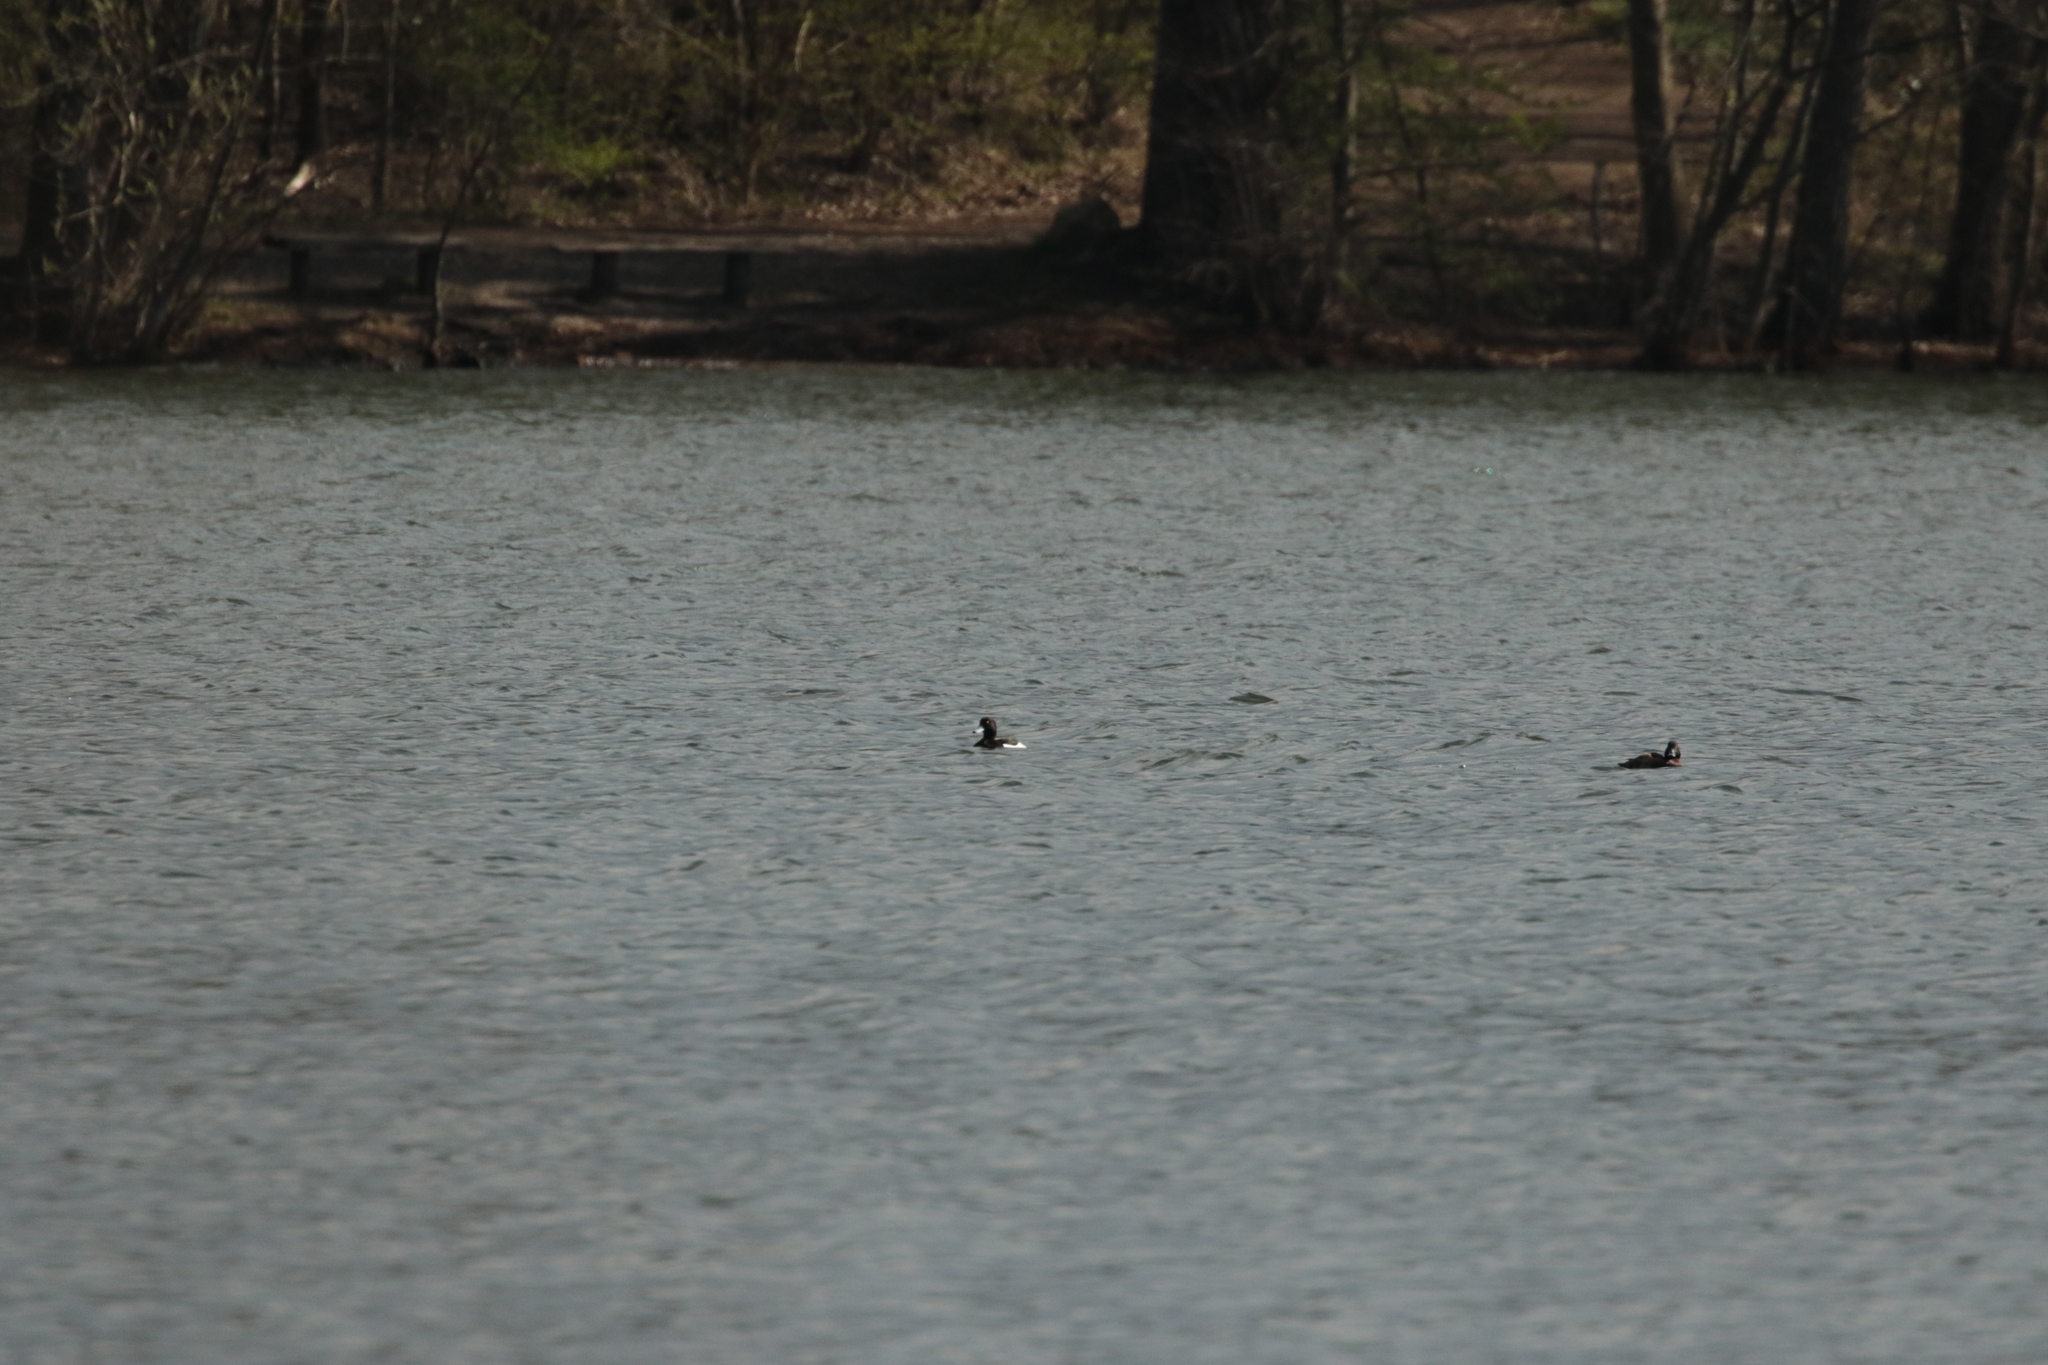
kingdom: Animalia
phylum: Chordata
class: Aves
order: Anseriformes
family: Anatidae
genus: Aythya
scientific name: Aythya fuligula
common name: Tufted duck
